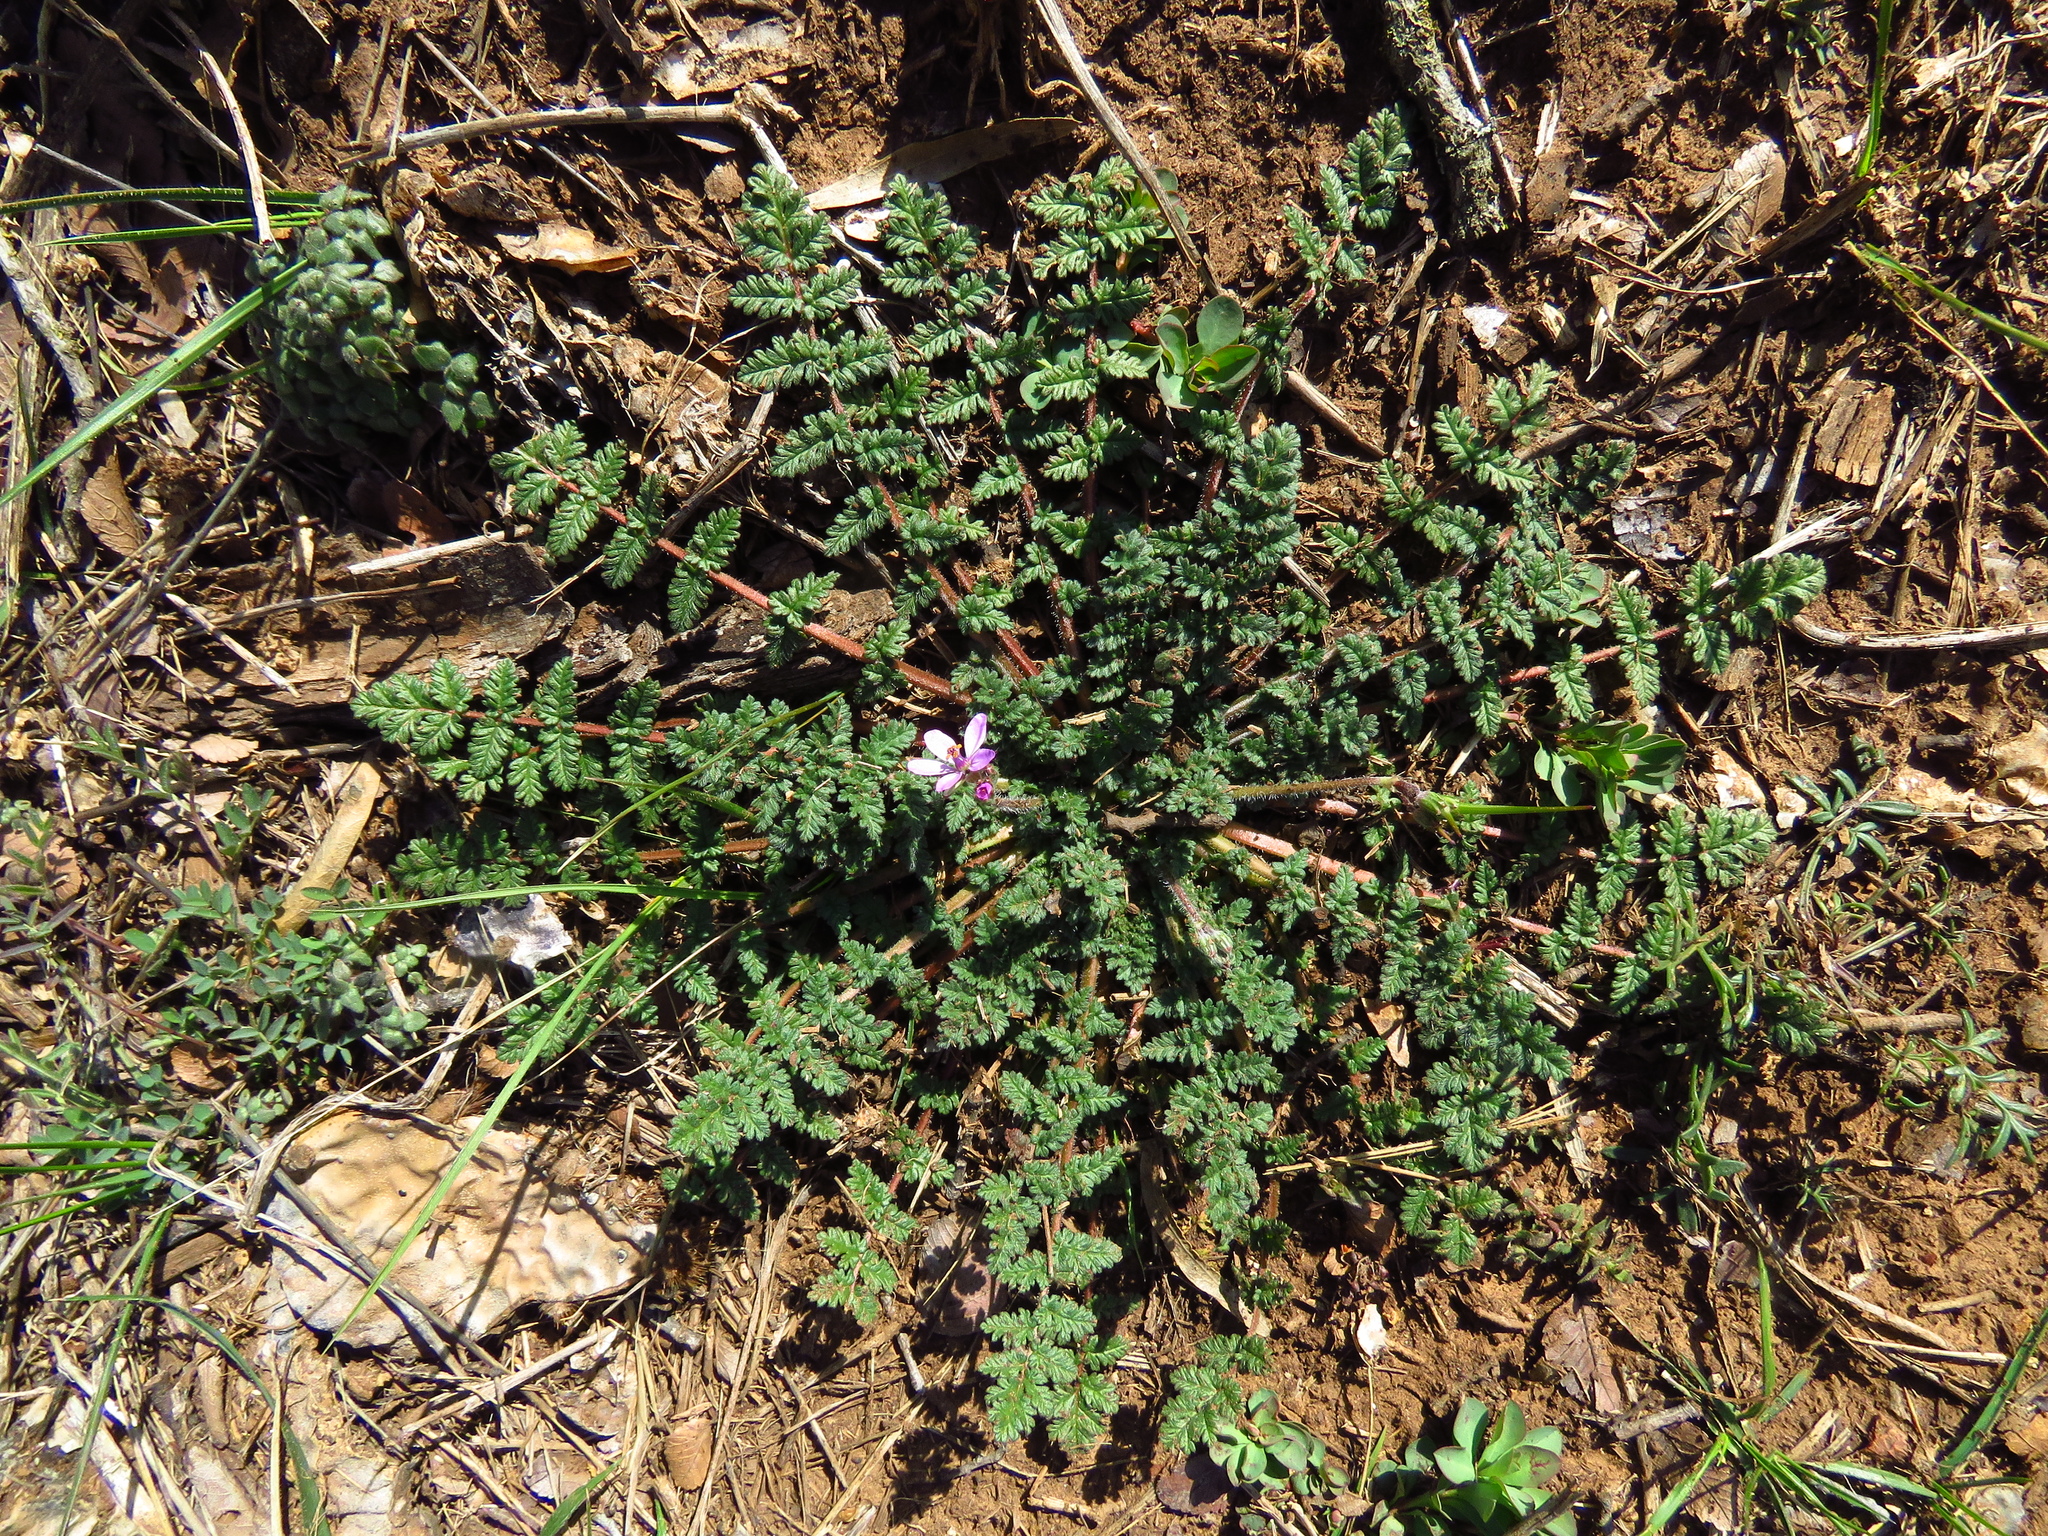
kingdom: Plantae
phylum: Tracheophyta
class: Magnoliopsida
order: Geraniales
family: Geraniaceae
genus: Erodium
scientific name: Erodium cicutarium
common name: Common stork's-bill
